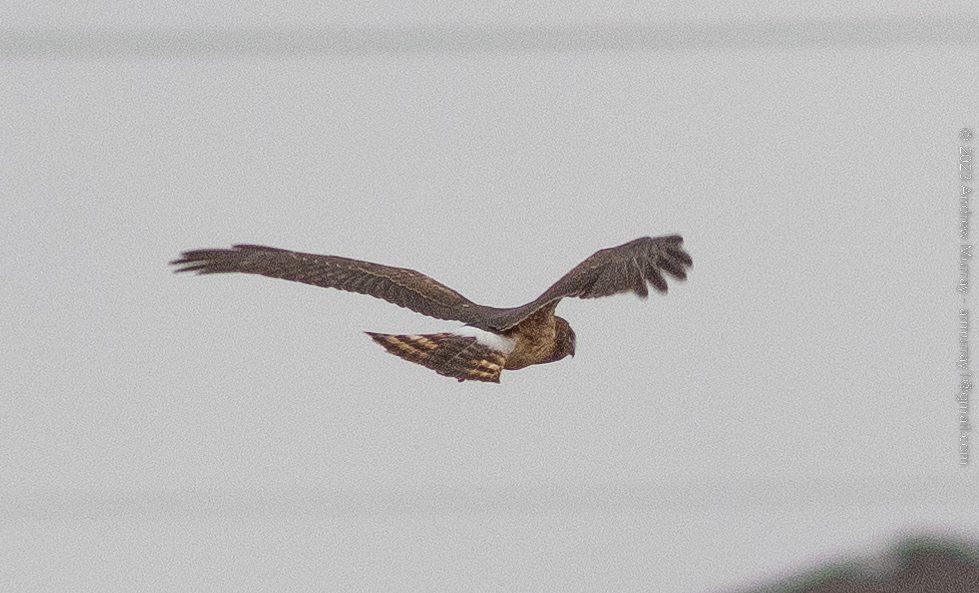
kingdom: Animalia
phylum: Chordata
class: Aves
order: Accipitriformes
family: Accipitridae
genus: Circus
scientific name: Circus cyaneus
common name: Hen harrier
